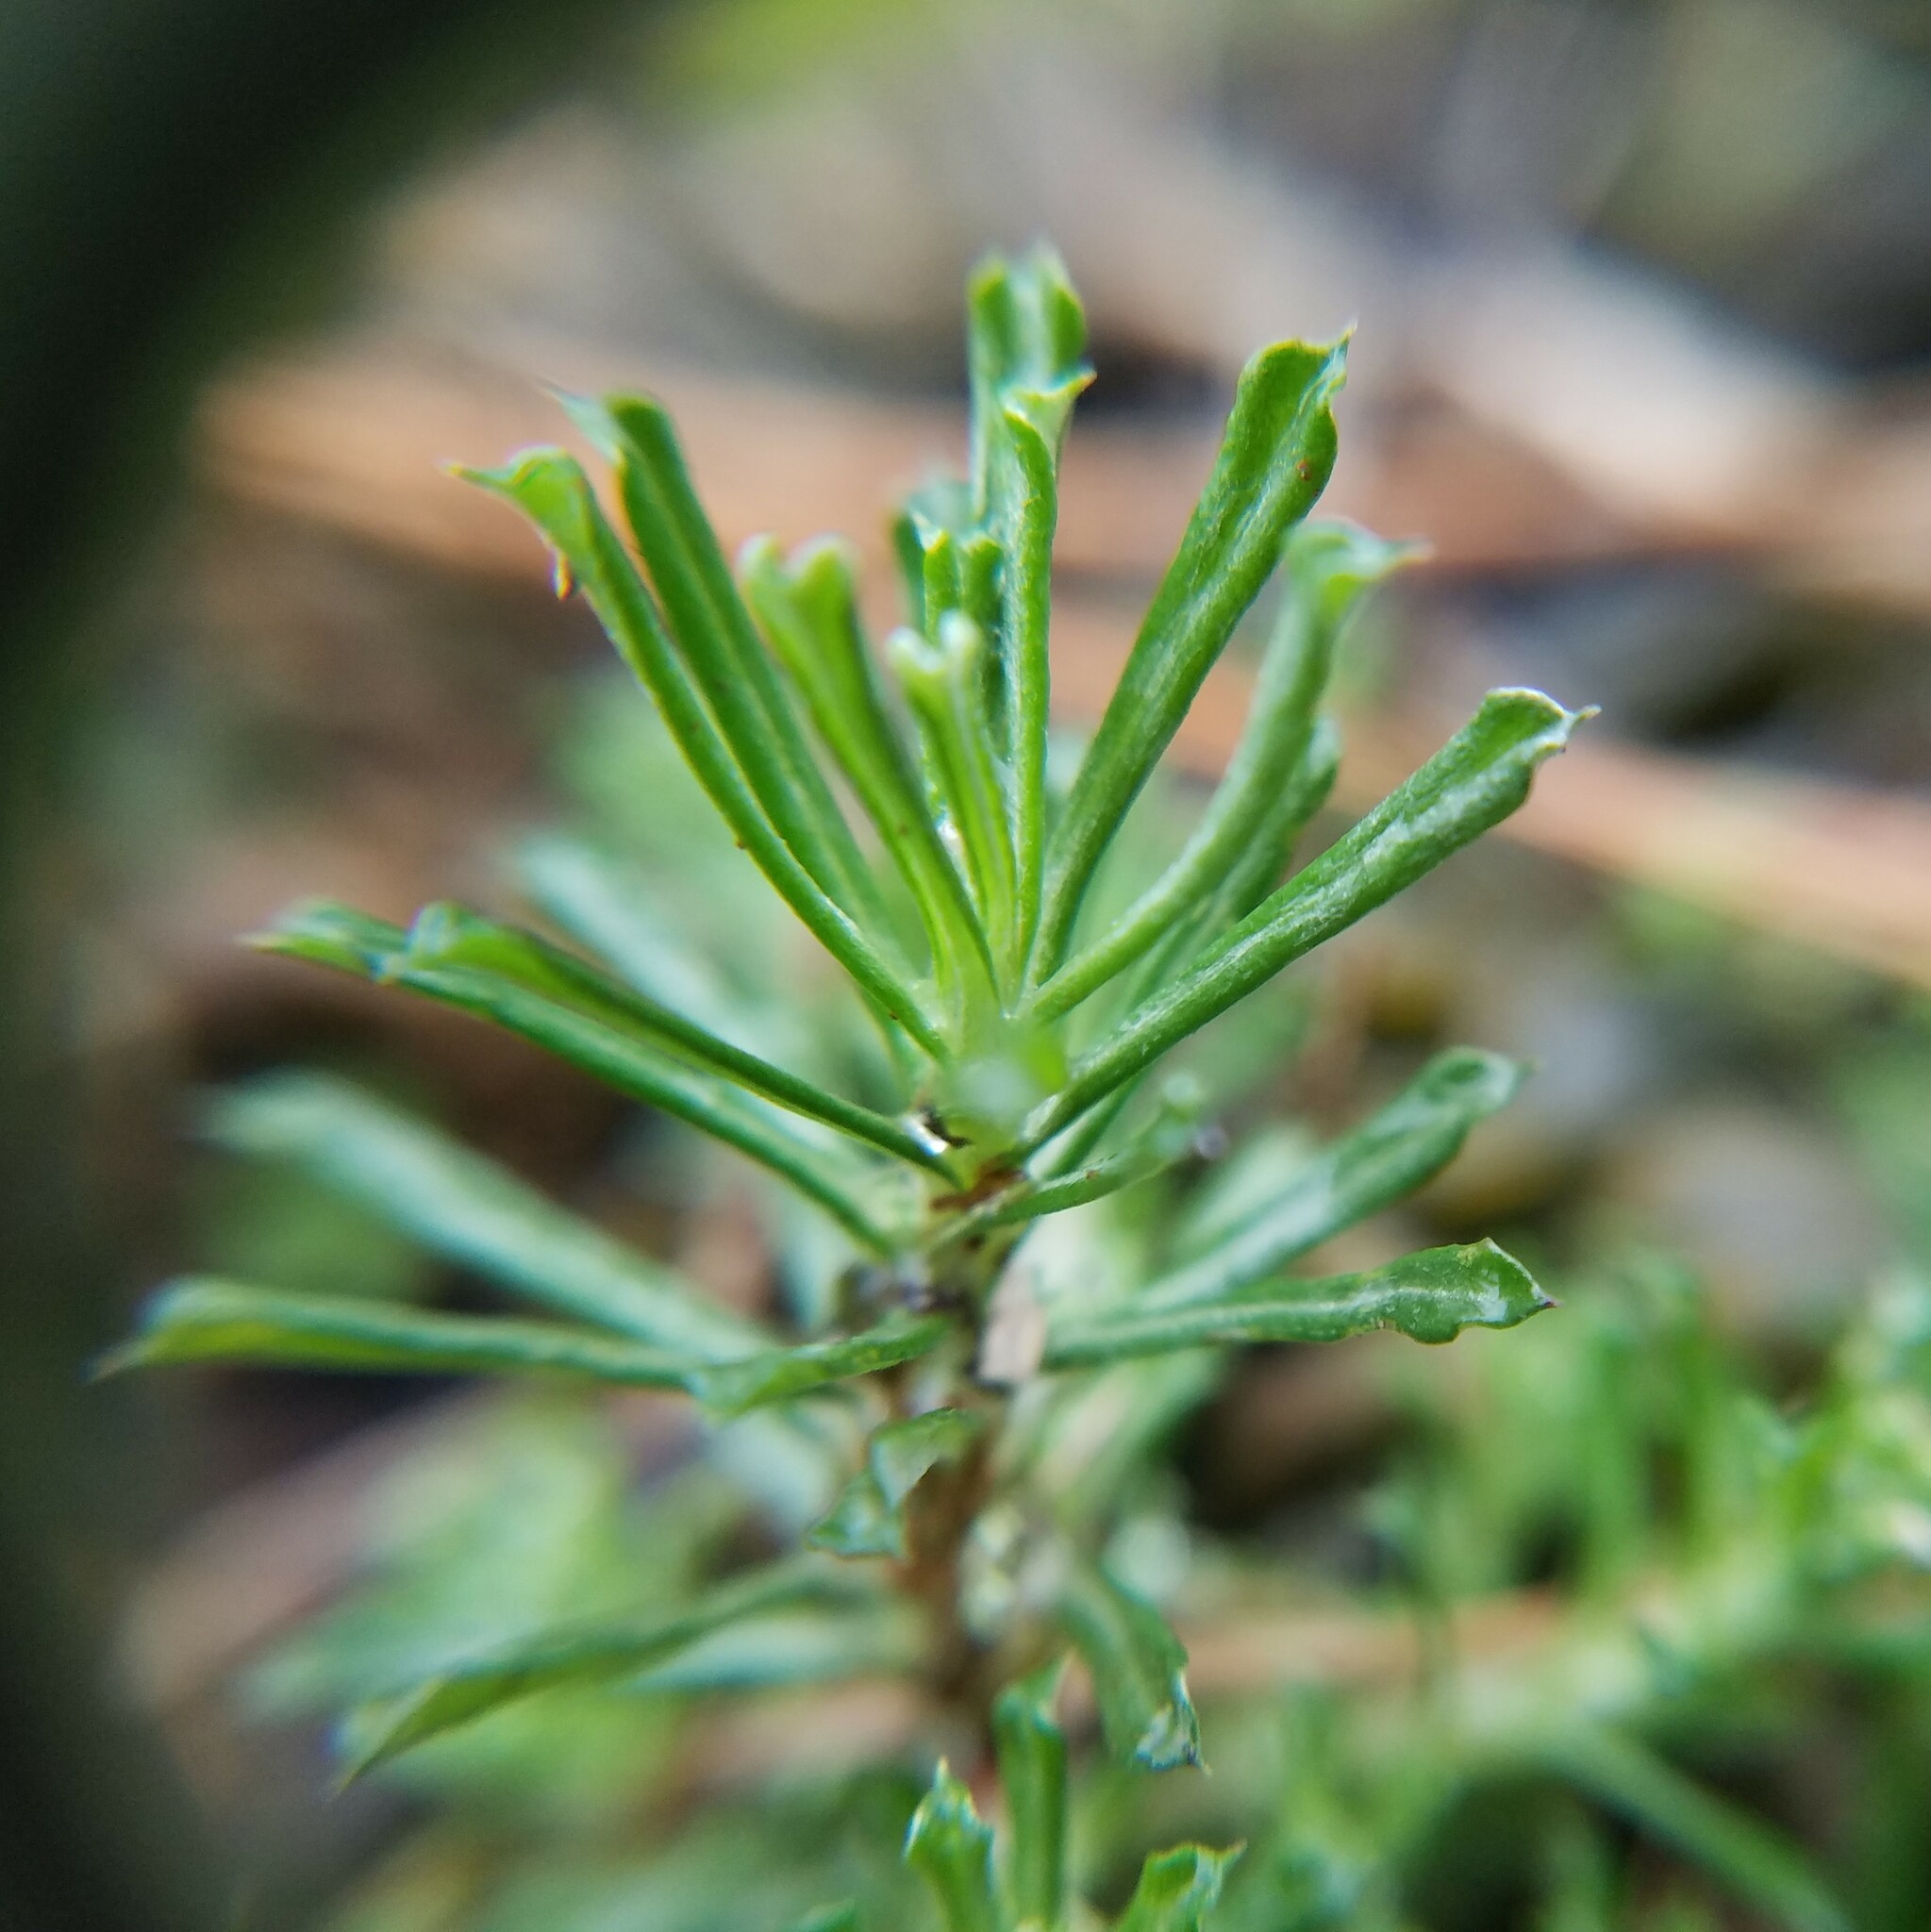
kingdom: Plantae
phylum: Tracheophyta
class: Magnoliopsida
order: Asterales
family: Asteraceae
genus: Facelis
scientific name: Facelis retusa
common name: Annual trampweed
